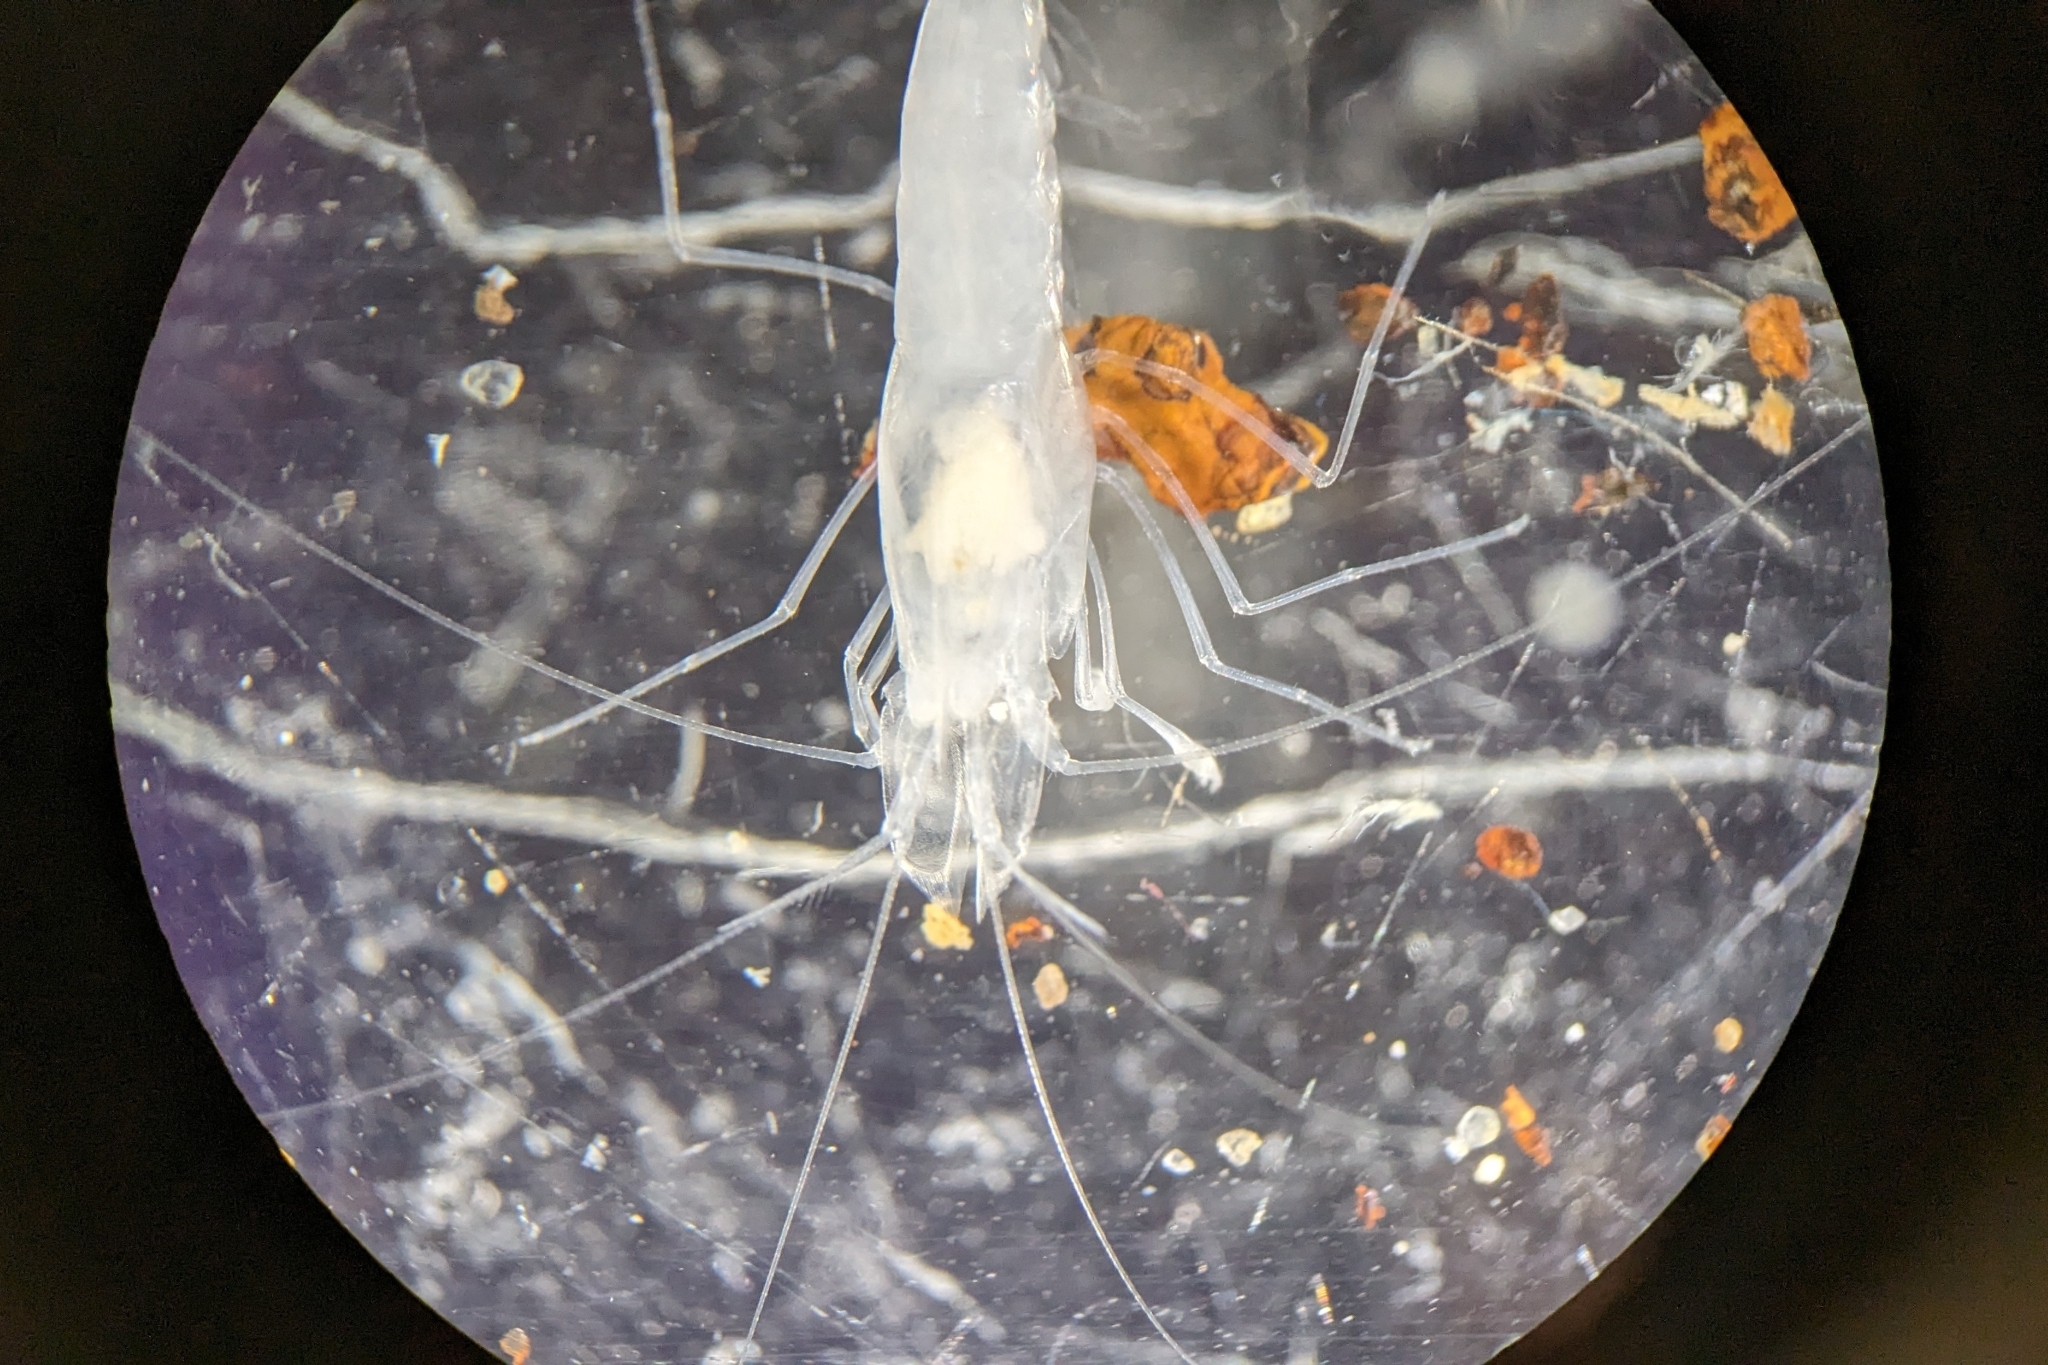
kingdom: Animalia
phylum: Arthropoda
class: Malacostraca
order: Decapoda
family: Palaemonidae
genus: Palaemon
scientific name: Palaemon antrorum
